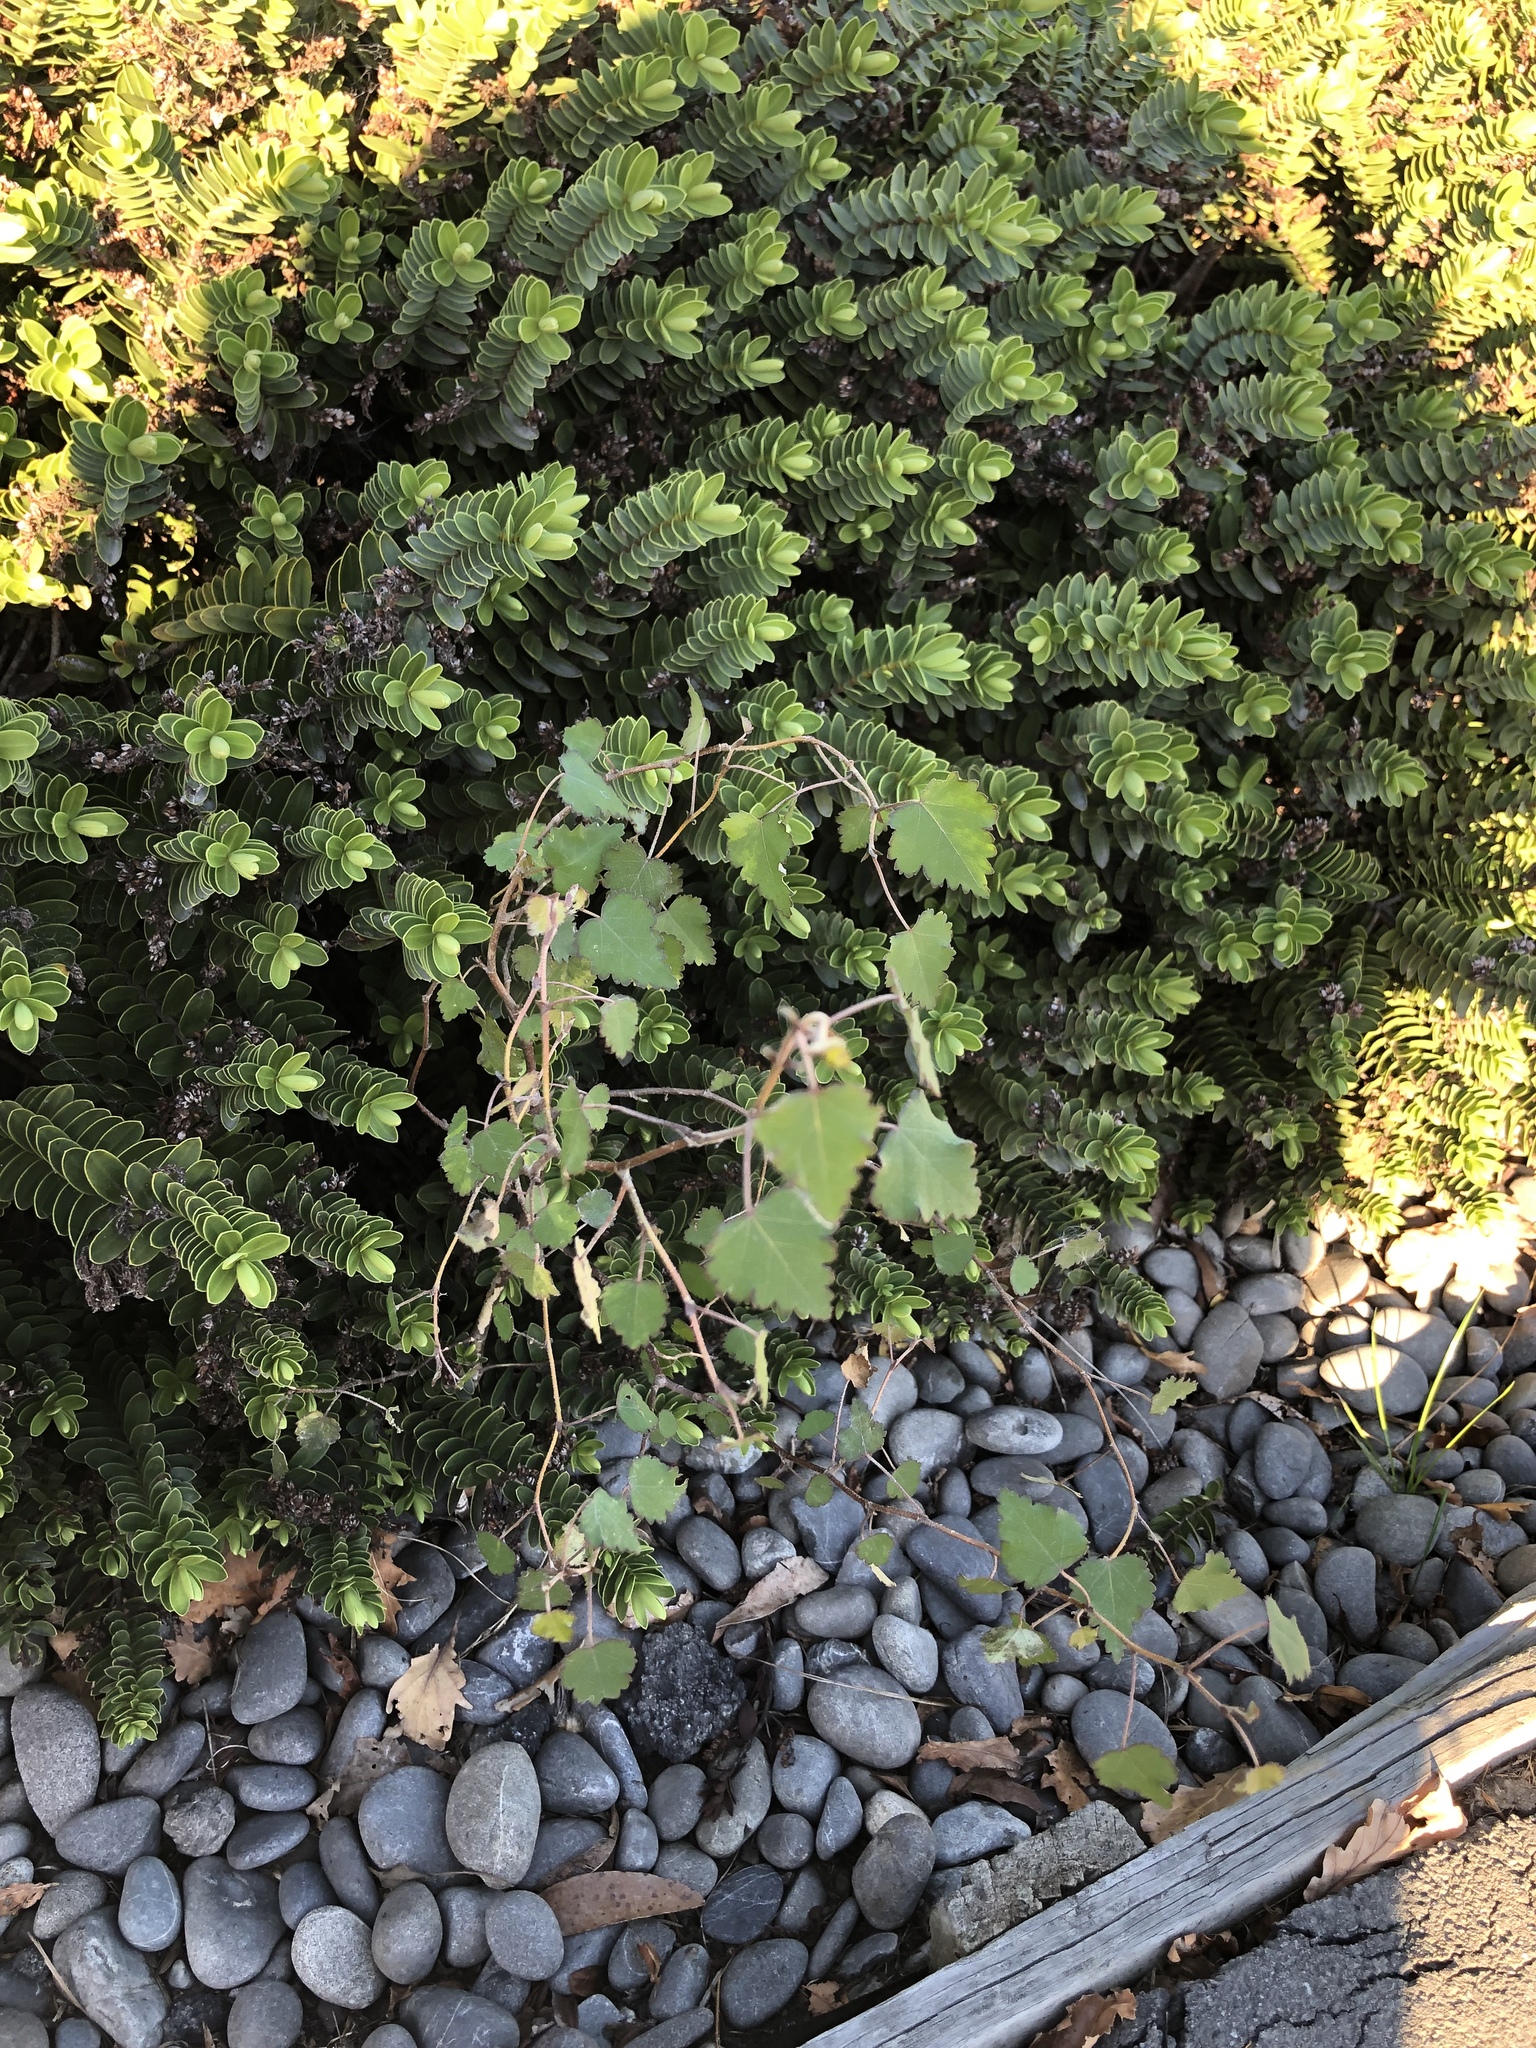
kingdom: Plantae
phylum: Tracheophyta
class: Magnoliopsida
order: Malvales
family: Malvaceae
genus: Plagianthus
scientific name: Plagianthus regius
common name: Manatu
